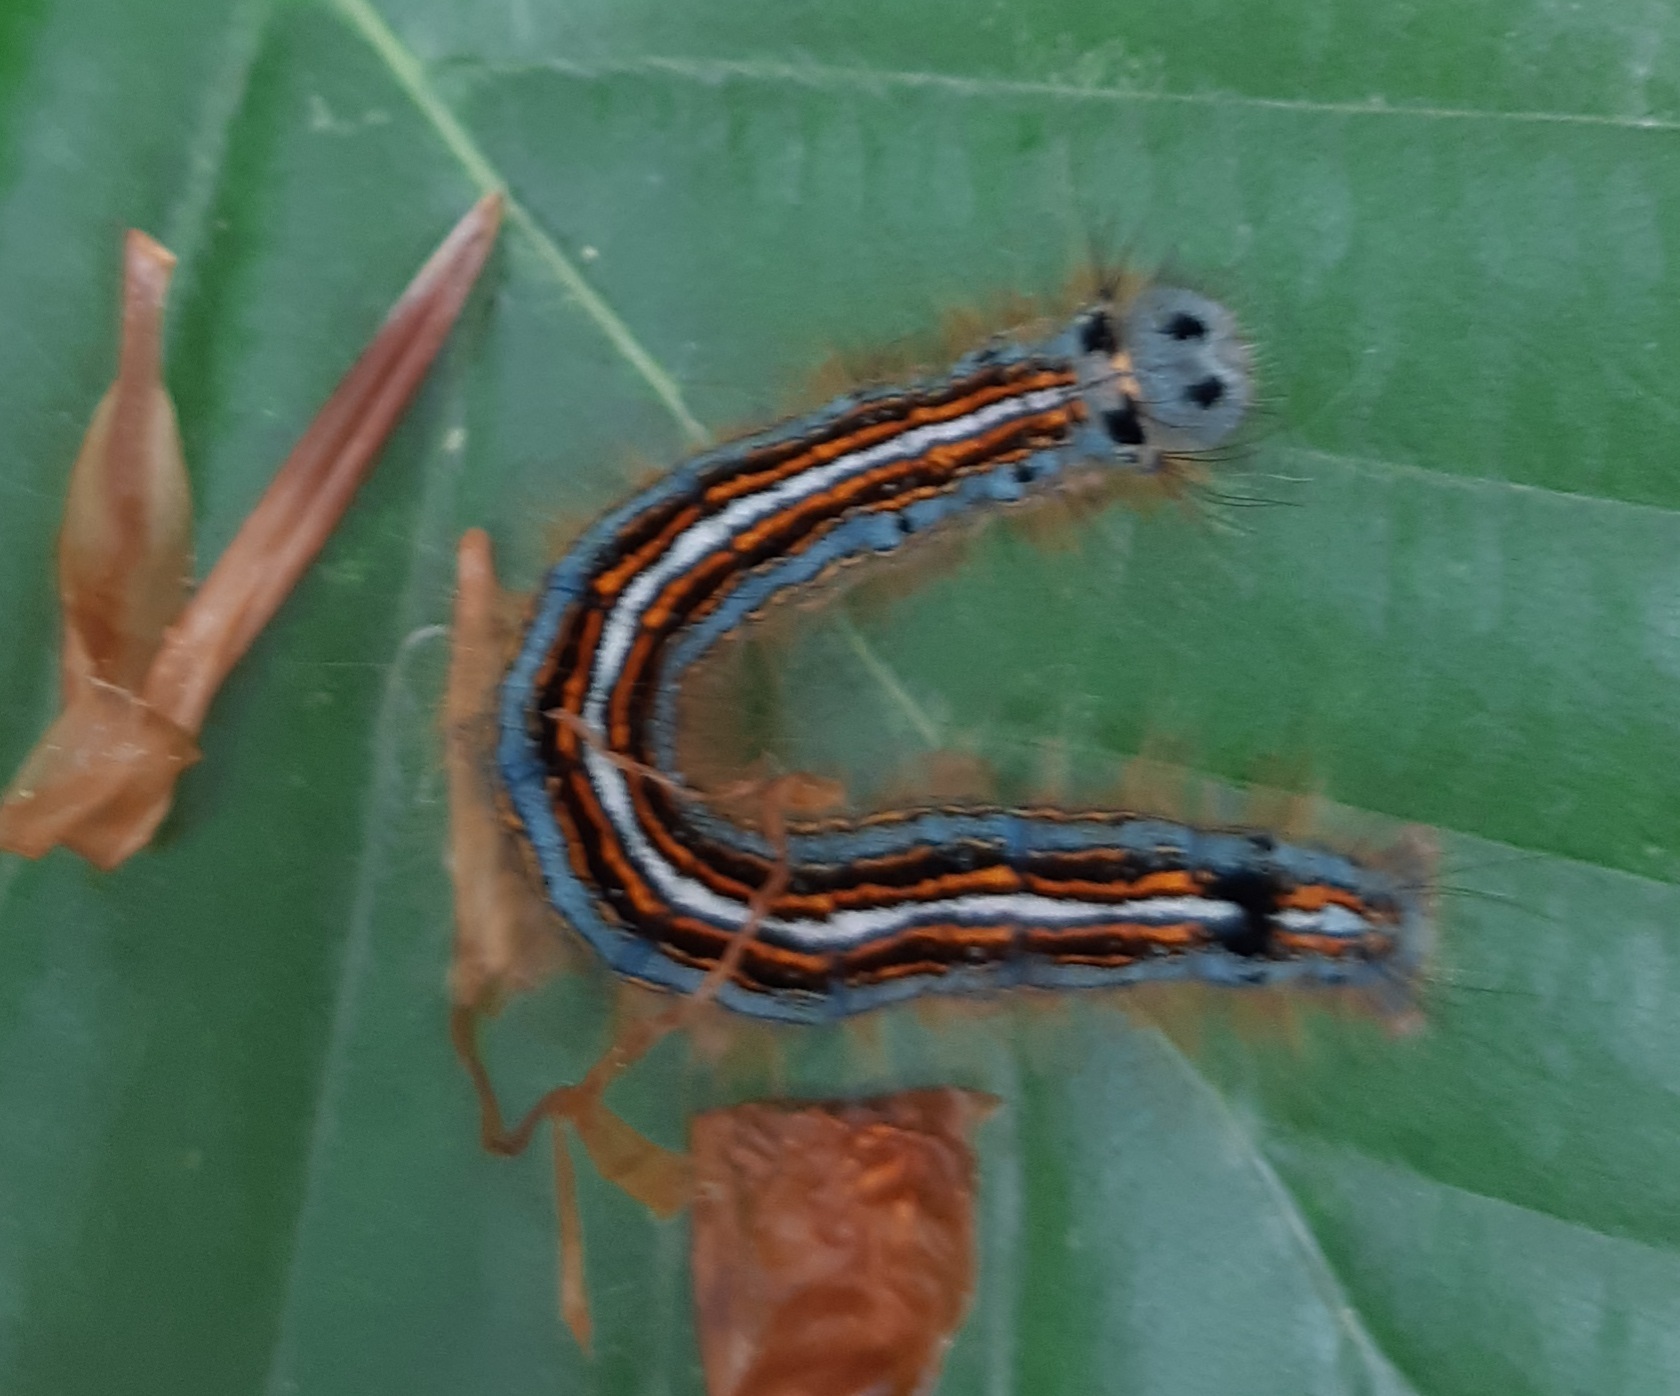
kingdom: Animalia
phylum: Arthropoda
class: Insecta
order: Lepidoptera
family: Lasiocampidae
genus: Malacosoma
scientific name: Malacosoma neustria
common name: The lackey
